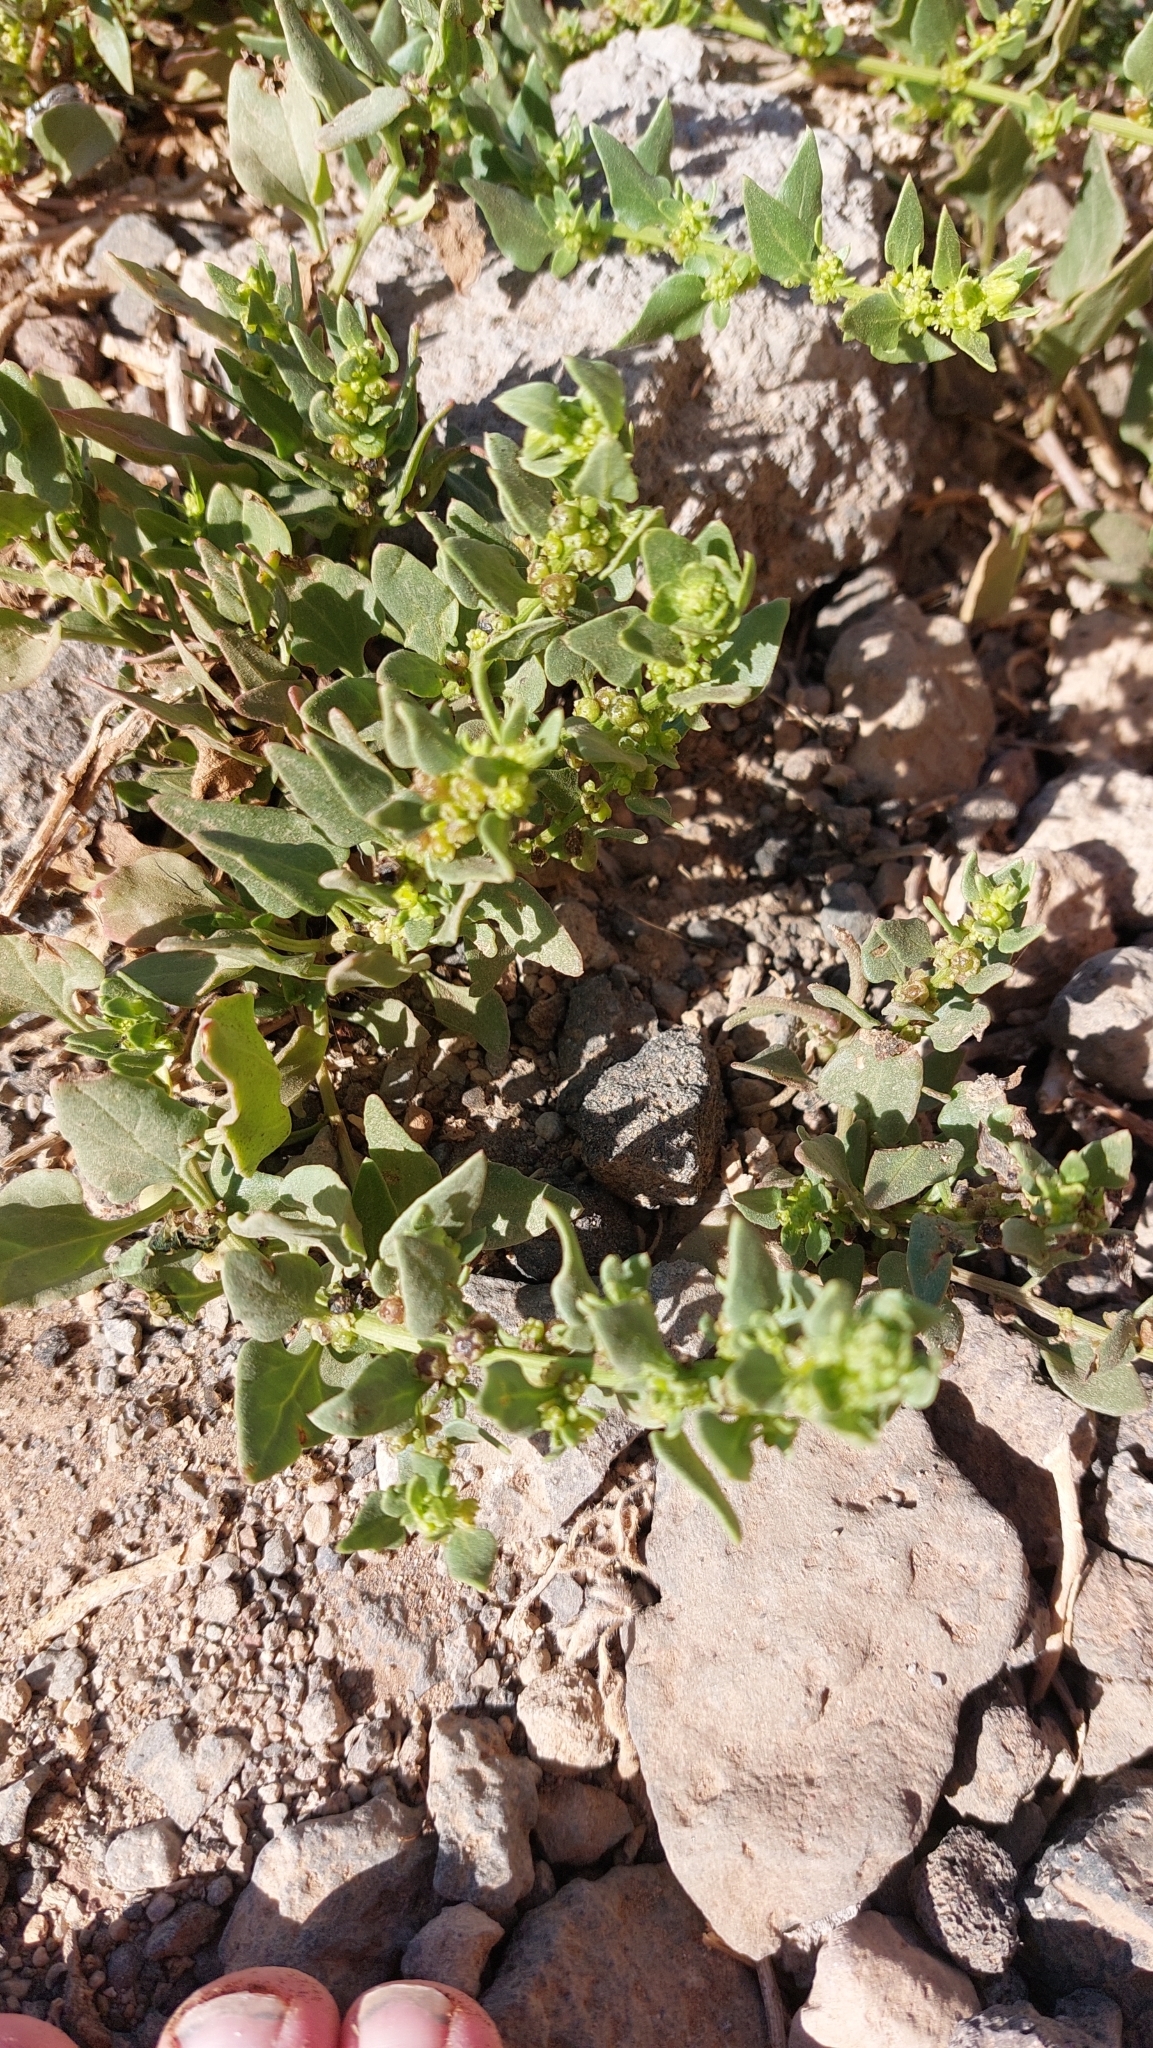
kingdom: Plantae
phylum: Tracheophyta
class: Magnoliopsida
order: Caryophyllales
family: Amaranthaceae
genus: Patellifolia
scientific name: Patellifolia procumbens
